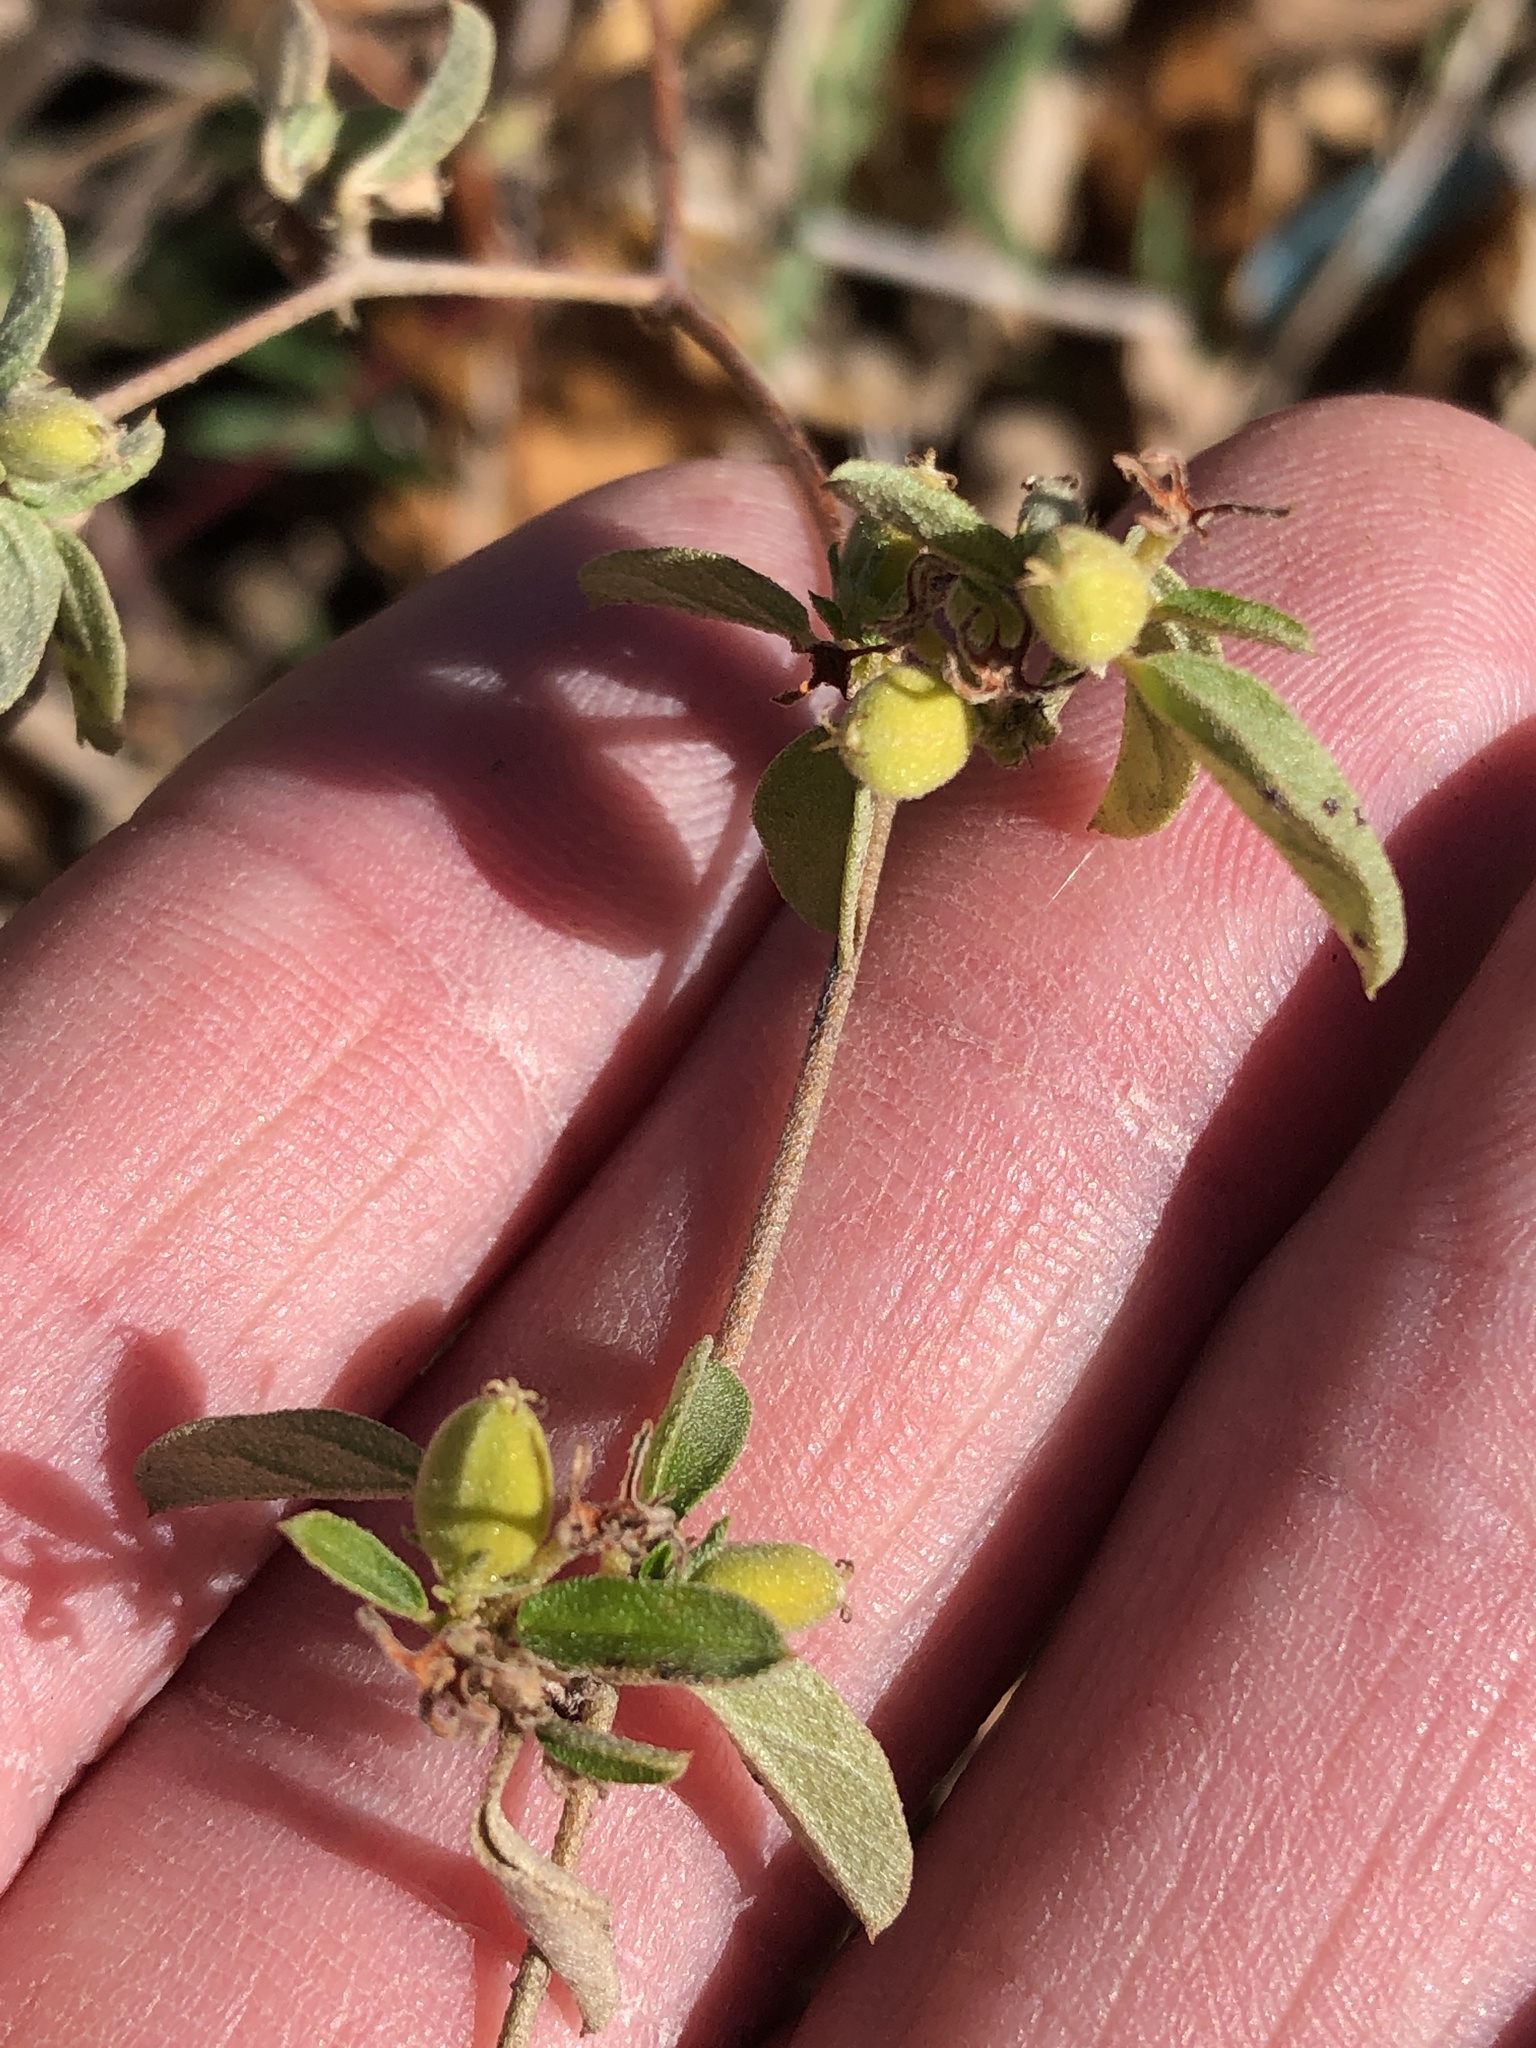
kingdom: Plantae
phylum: Tracheophyta
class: Magnoliopsida
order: Malpighiales
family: Euphorbiaceae
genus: Croton
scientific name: Croton monanthogynus
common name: One-seed croton
